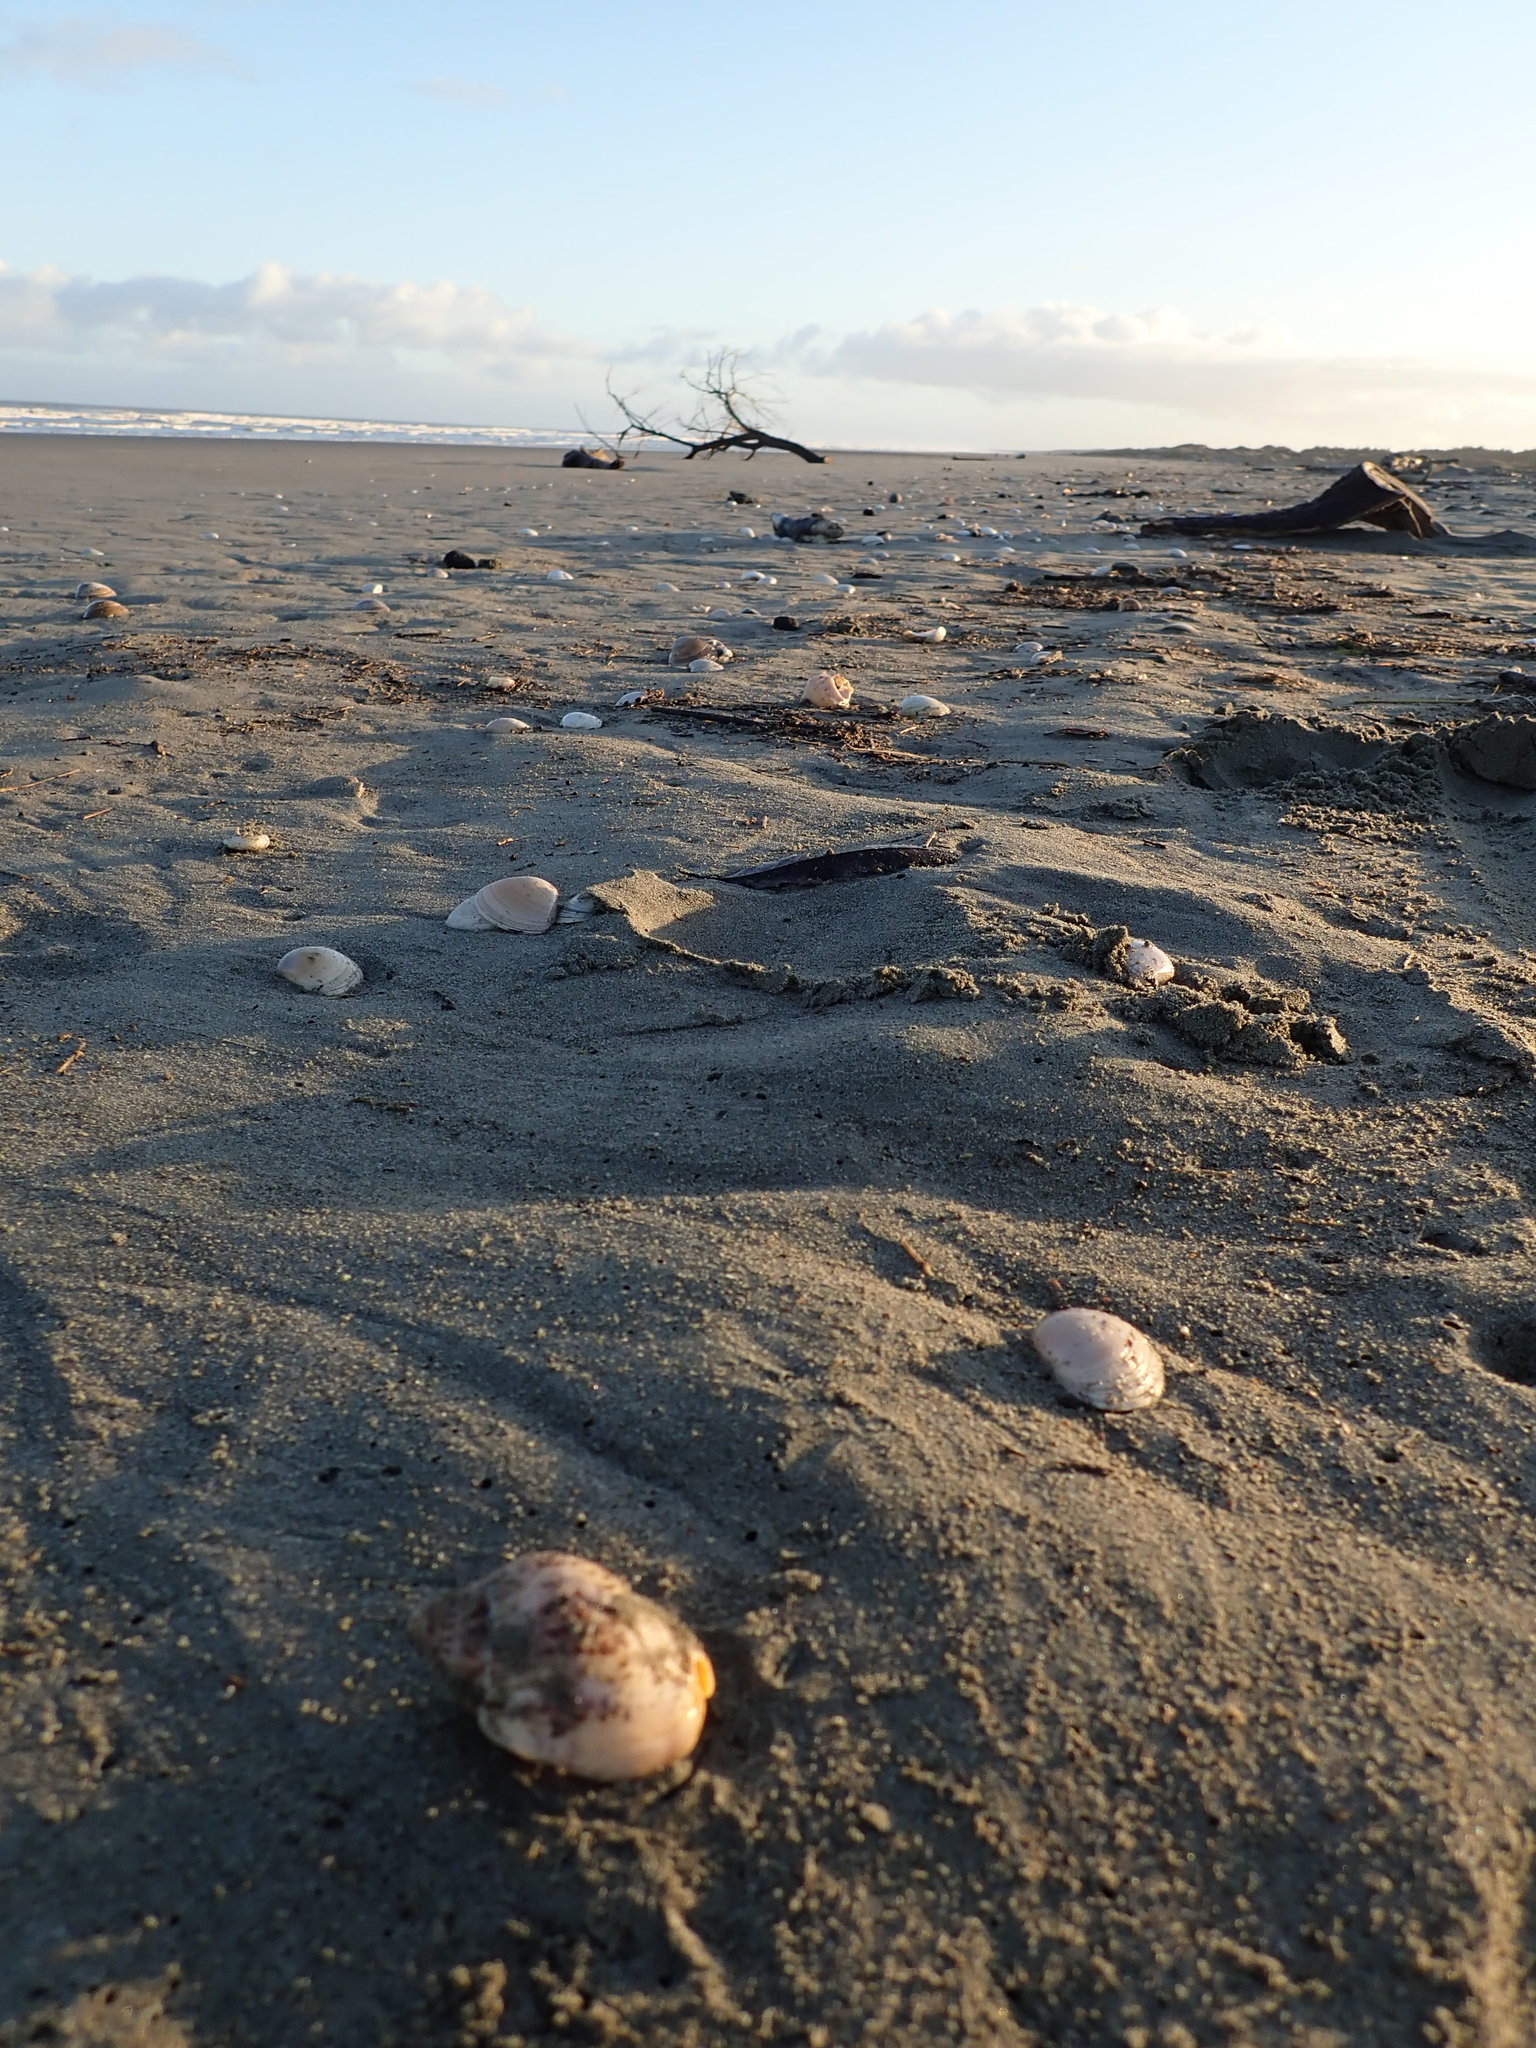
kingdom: Animalia
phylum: Mollusca
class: Gastropoda
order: Neogastropoda
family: Cominellidae
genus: Cominella
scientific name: Cominella adspersa
